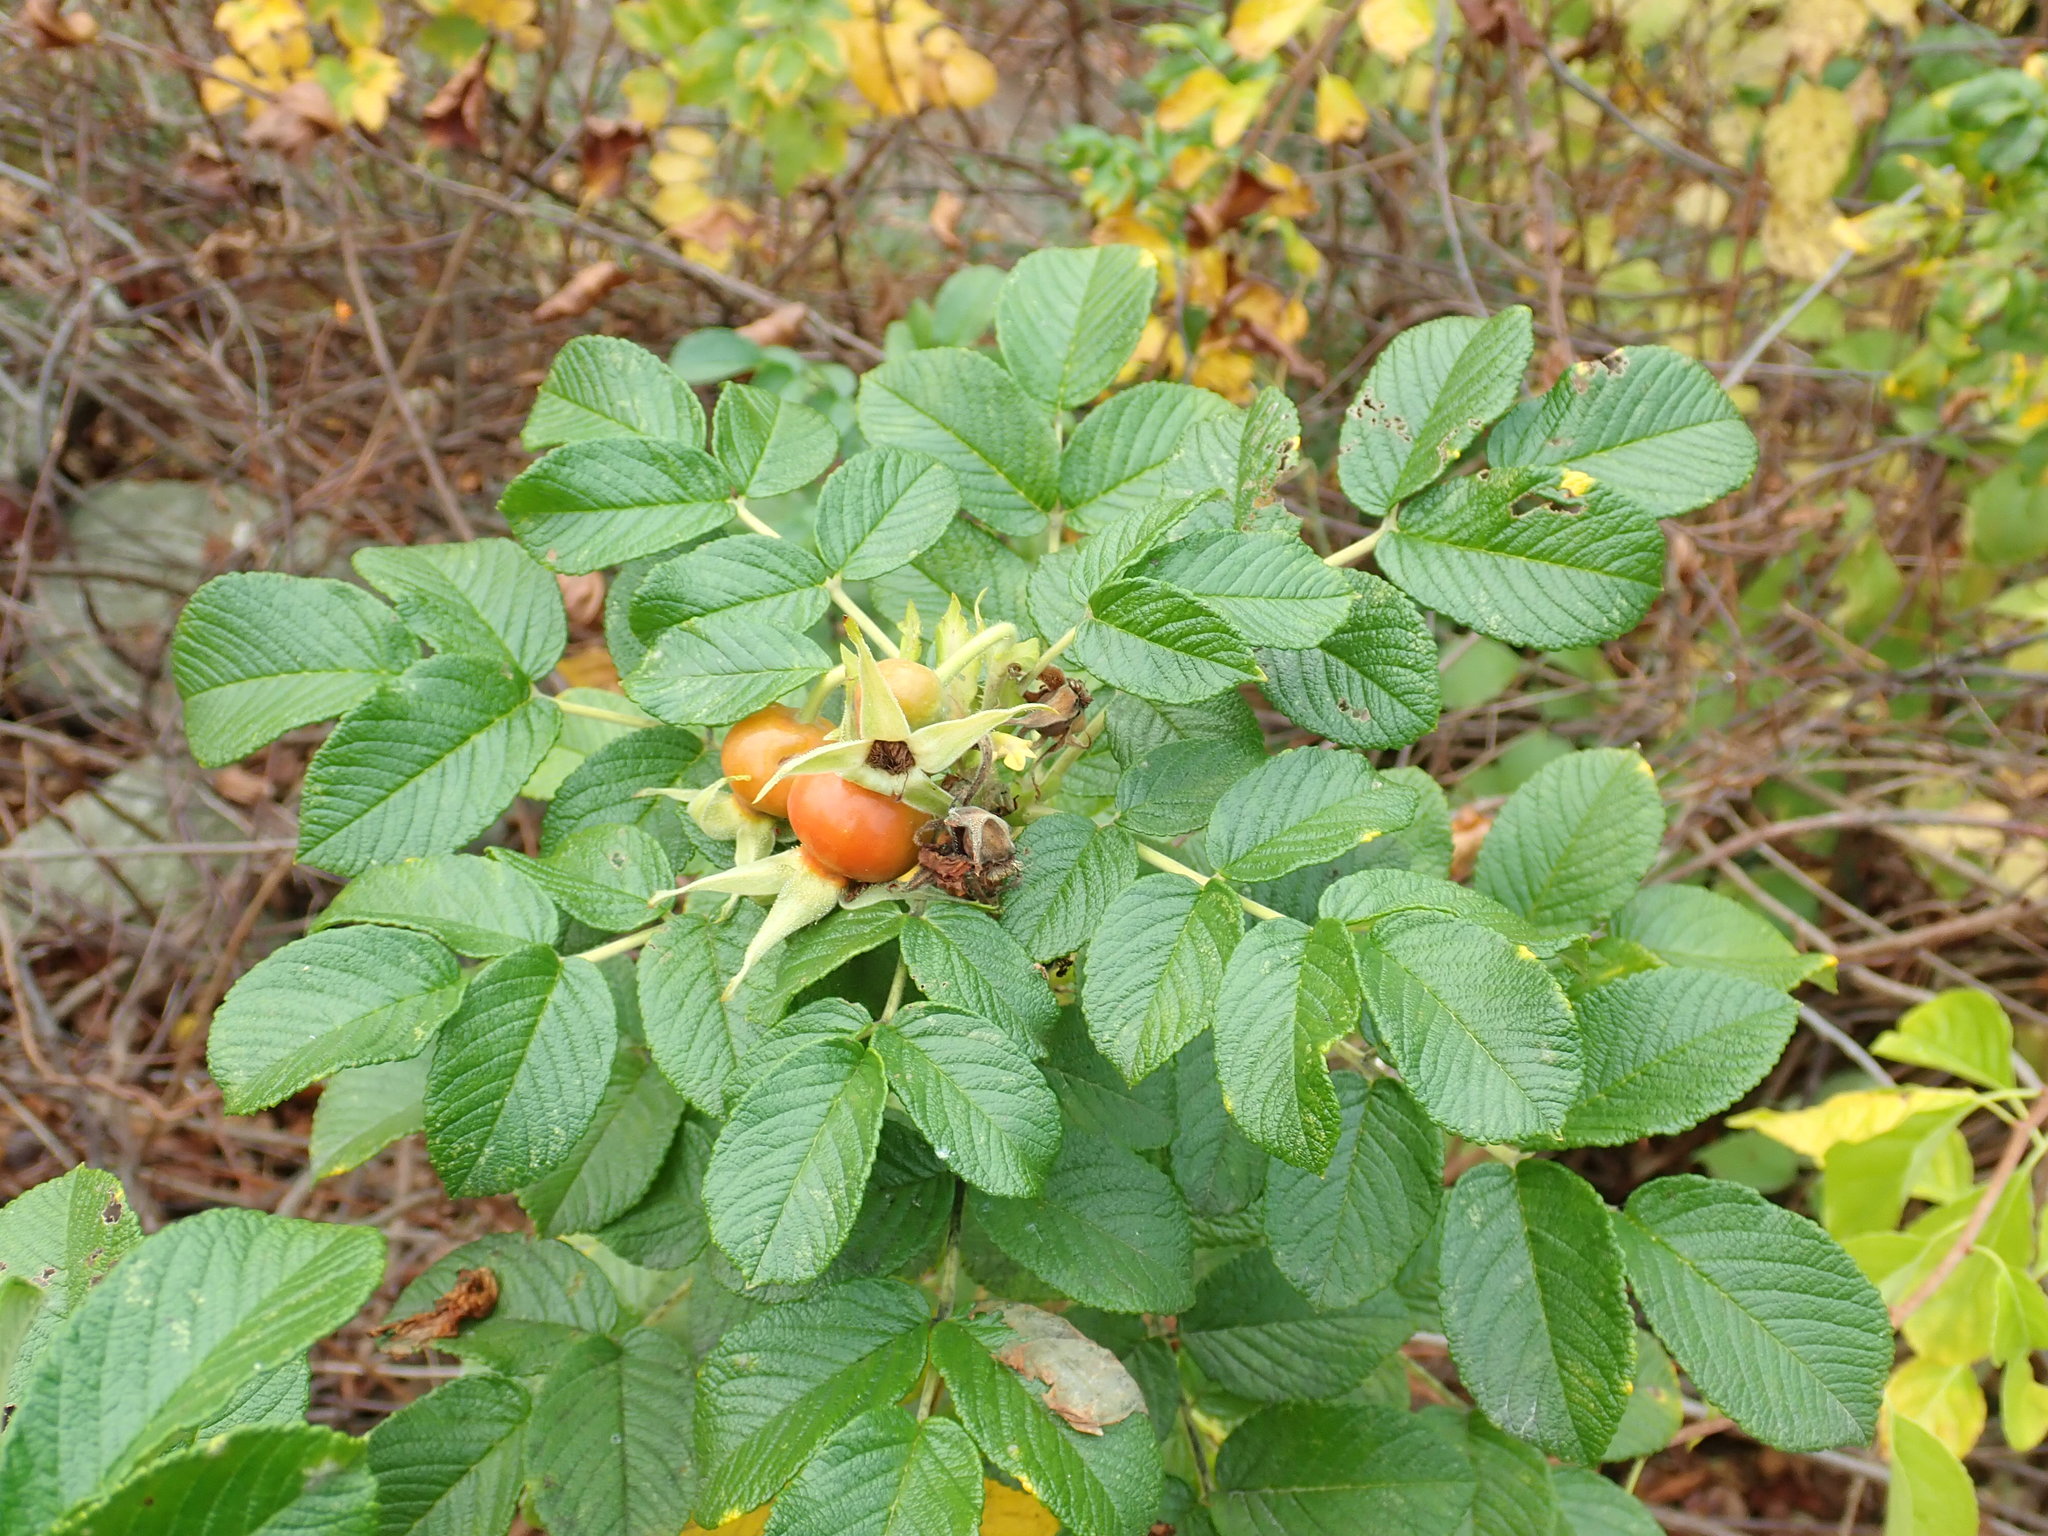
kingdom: Plantae
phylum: Tracheophyta
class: Magnoliopsida
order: Rosales
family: Rosaceae
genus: Rosa
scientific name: Rosa rugosa
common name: Japanese rose
